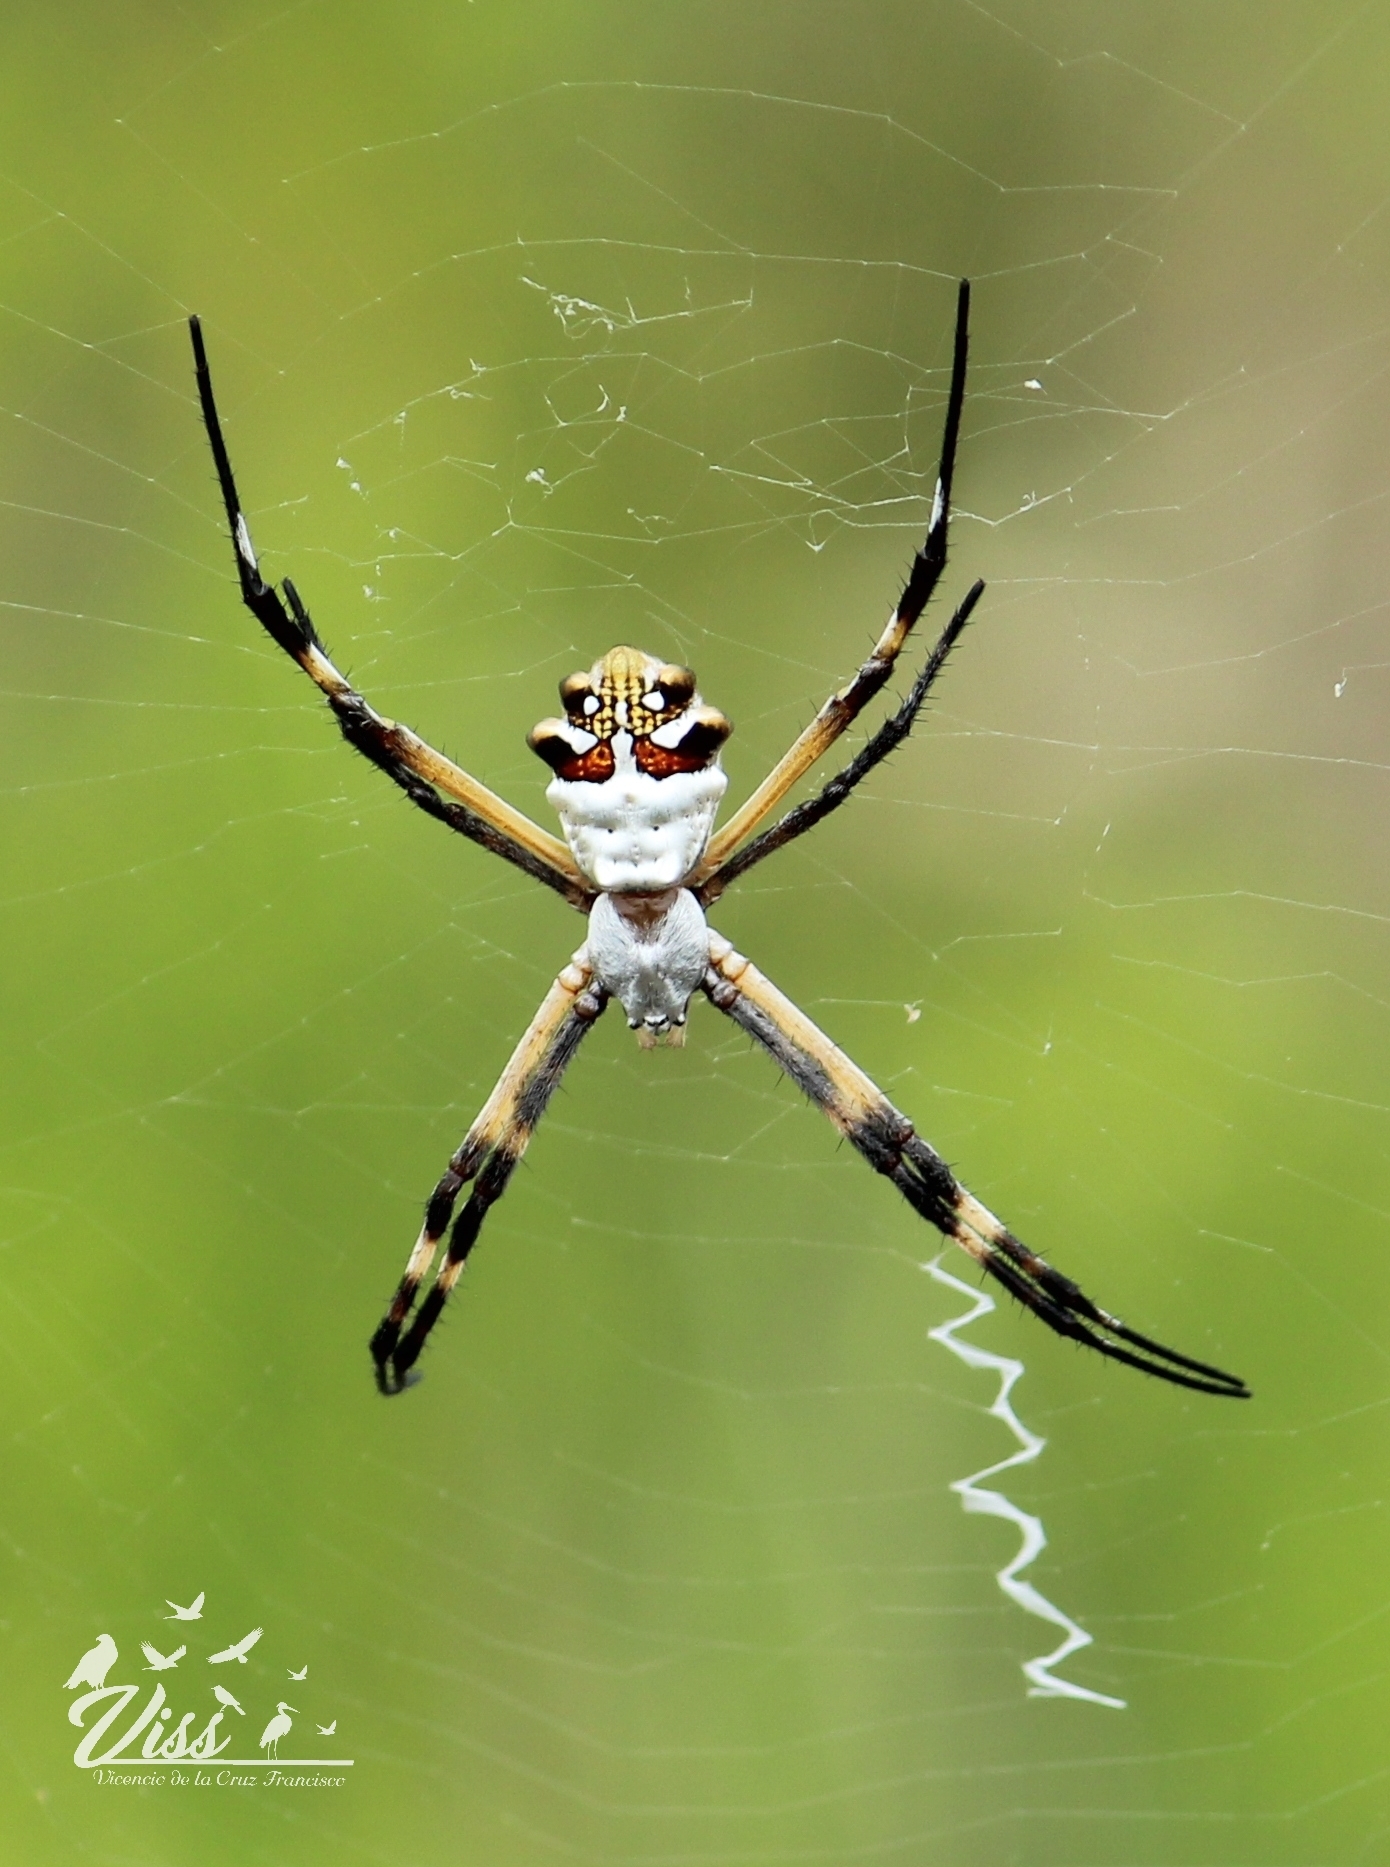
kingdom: Animalia
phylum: Arthropoda
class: Arachnida
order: Araneae
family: Araneidae
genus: Argiope
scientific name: Argiope argentata
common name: Orb weavers
